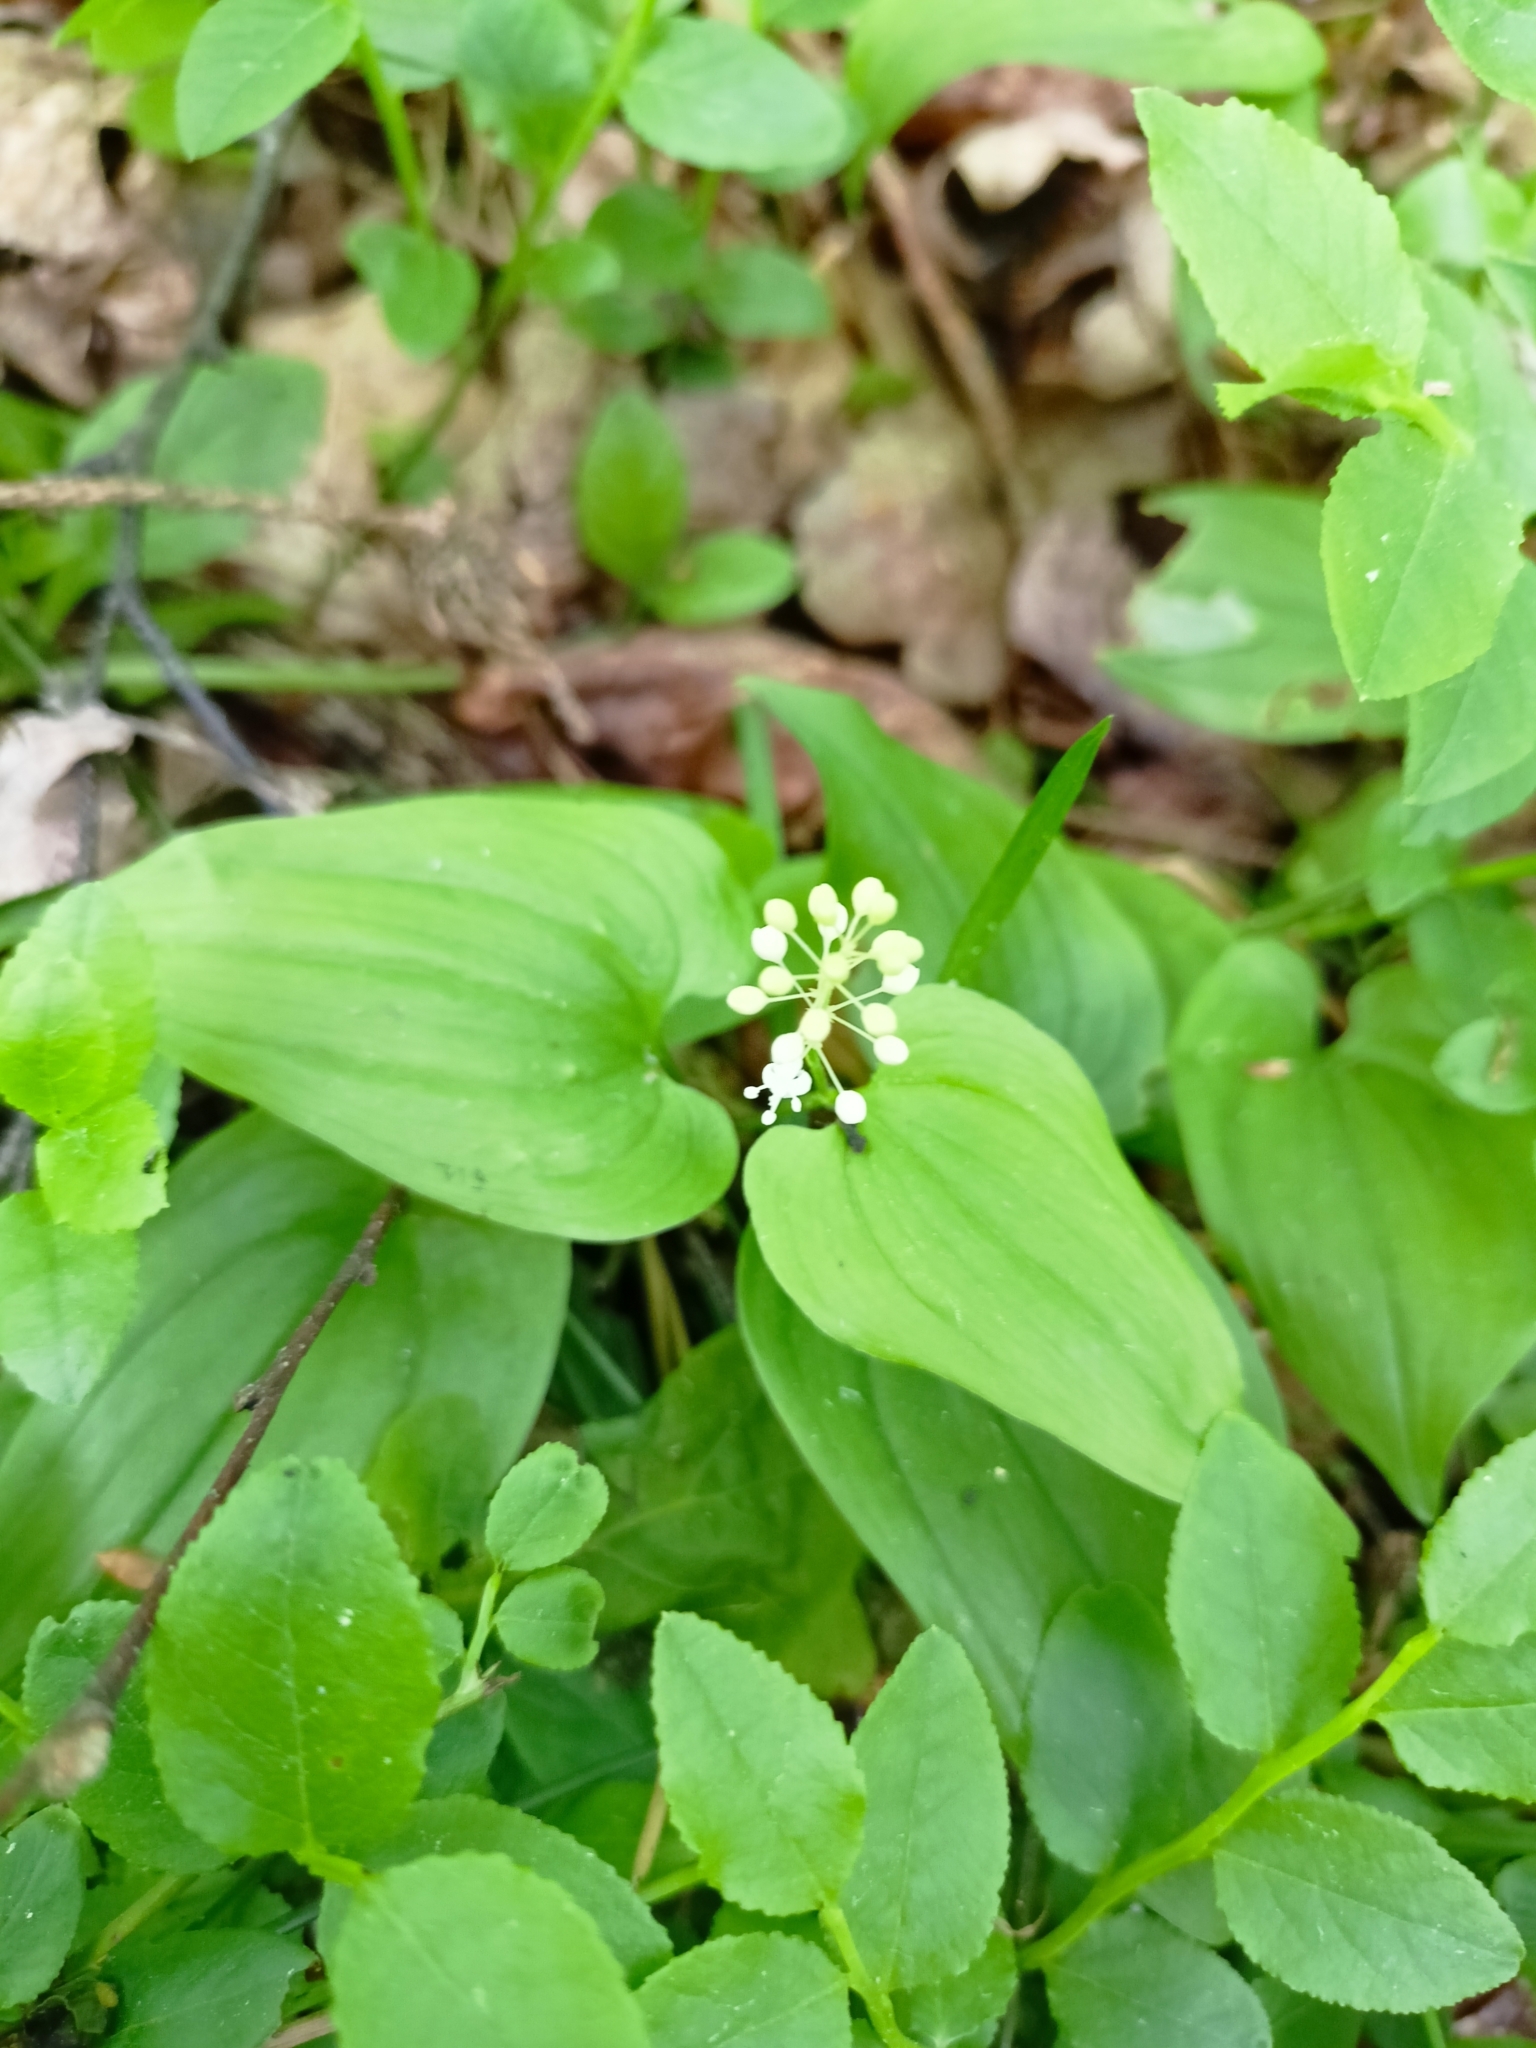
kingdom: Plantae
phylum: Tracheophyta
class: Liliopsida
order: Asparagales
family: Asparagaceae
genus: Maianthemum
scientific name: Maianthemum bifolium
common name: May lily
